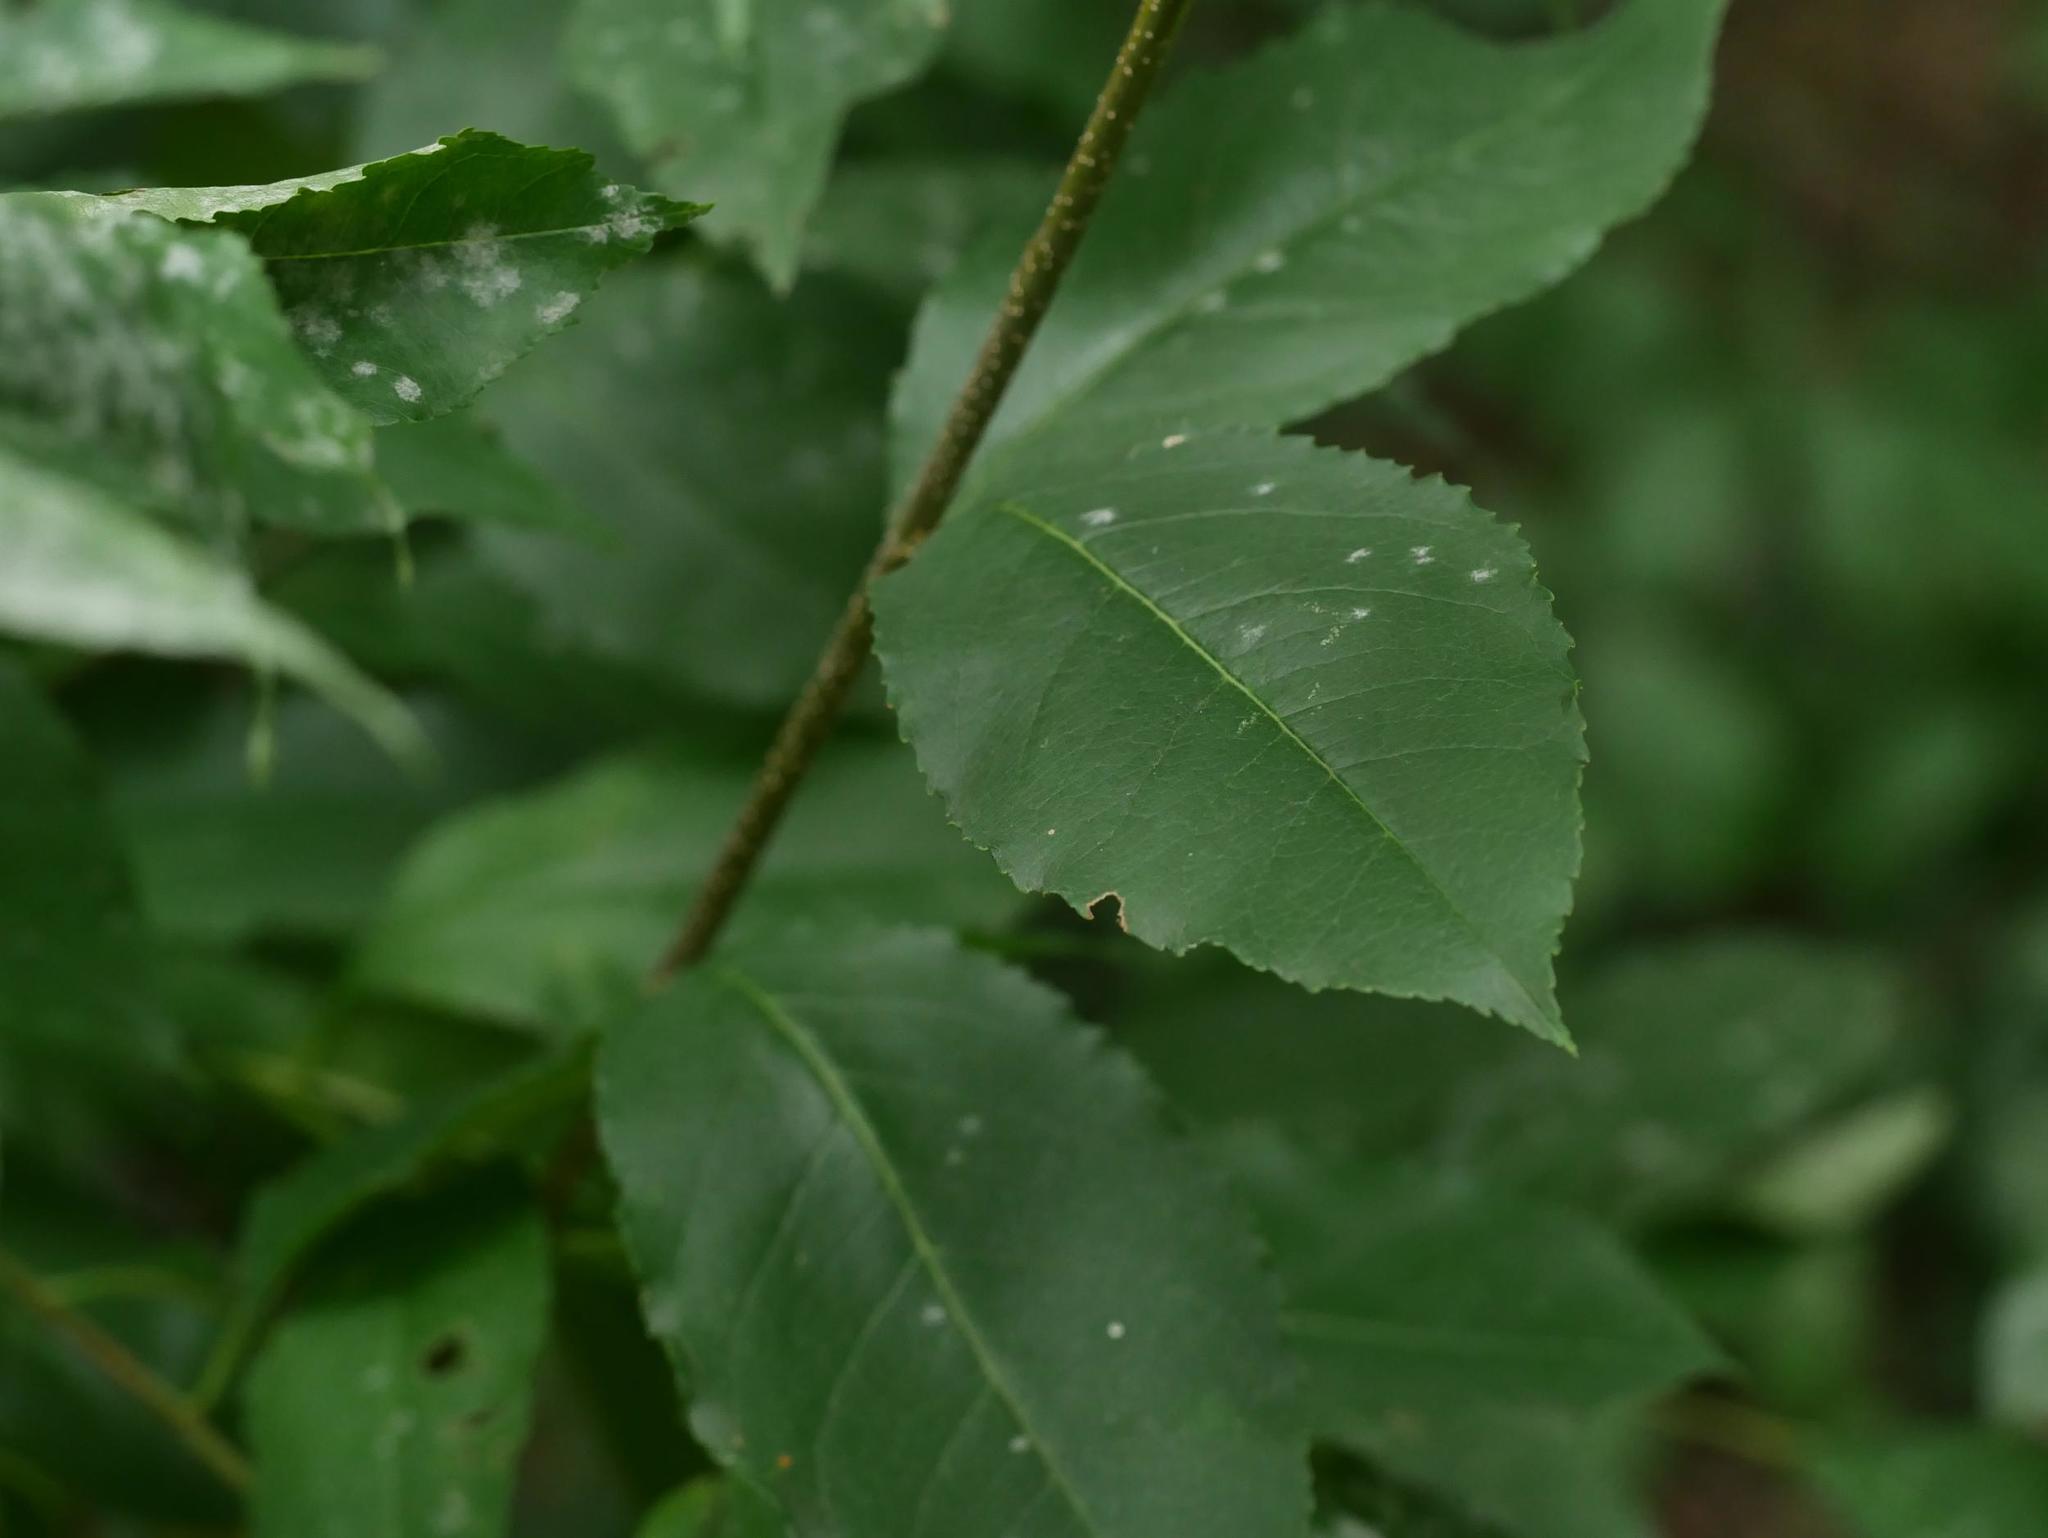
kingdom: Plantae
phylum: Tracheophyta
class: Magnoliopsida
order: Rosales
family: Rosaceae
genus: Prunus
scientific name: Prunus serotina
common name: Black cherry
